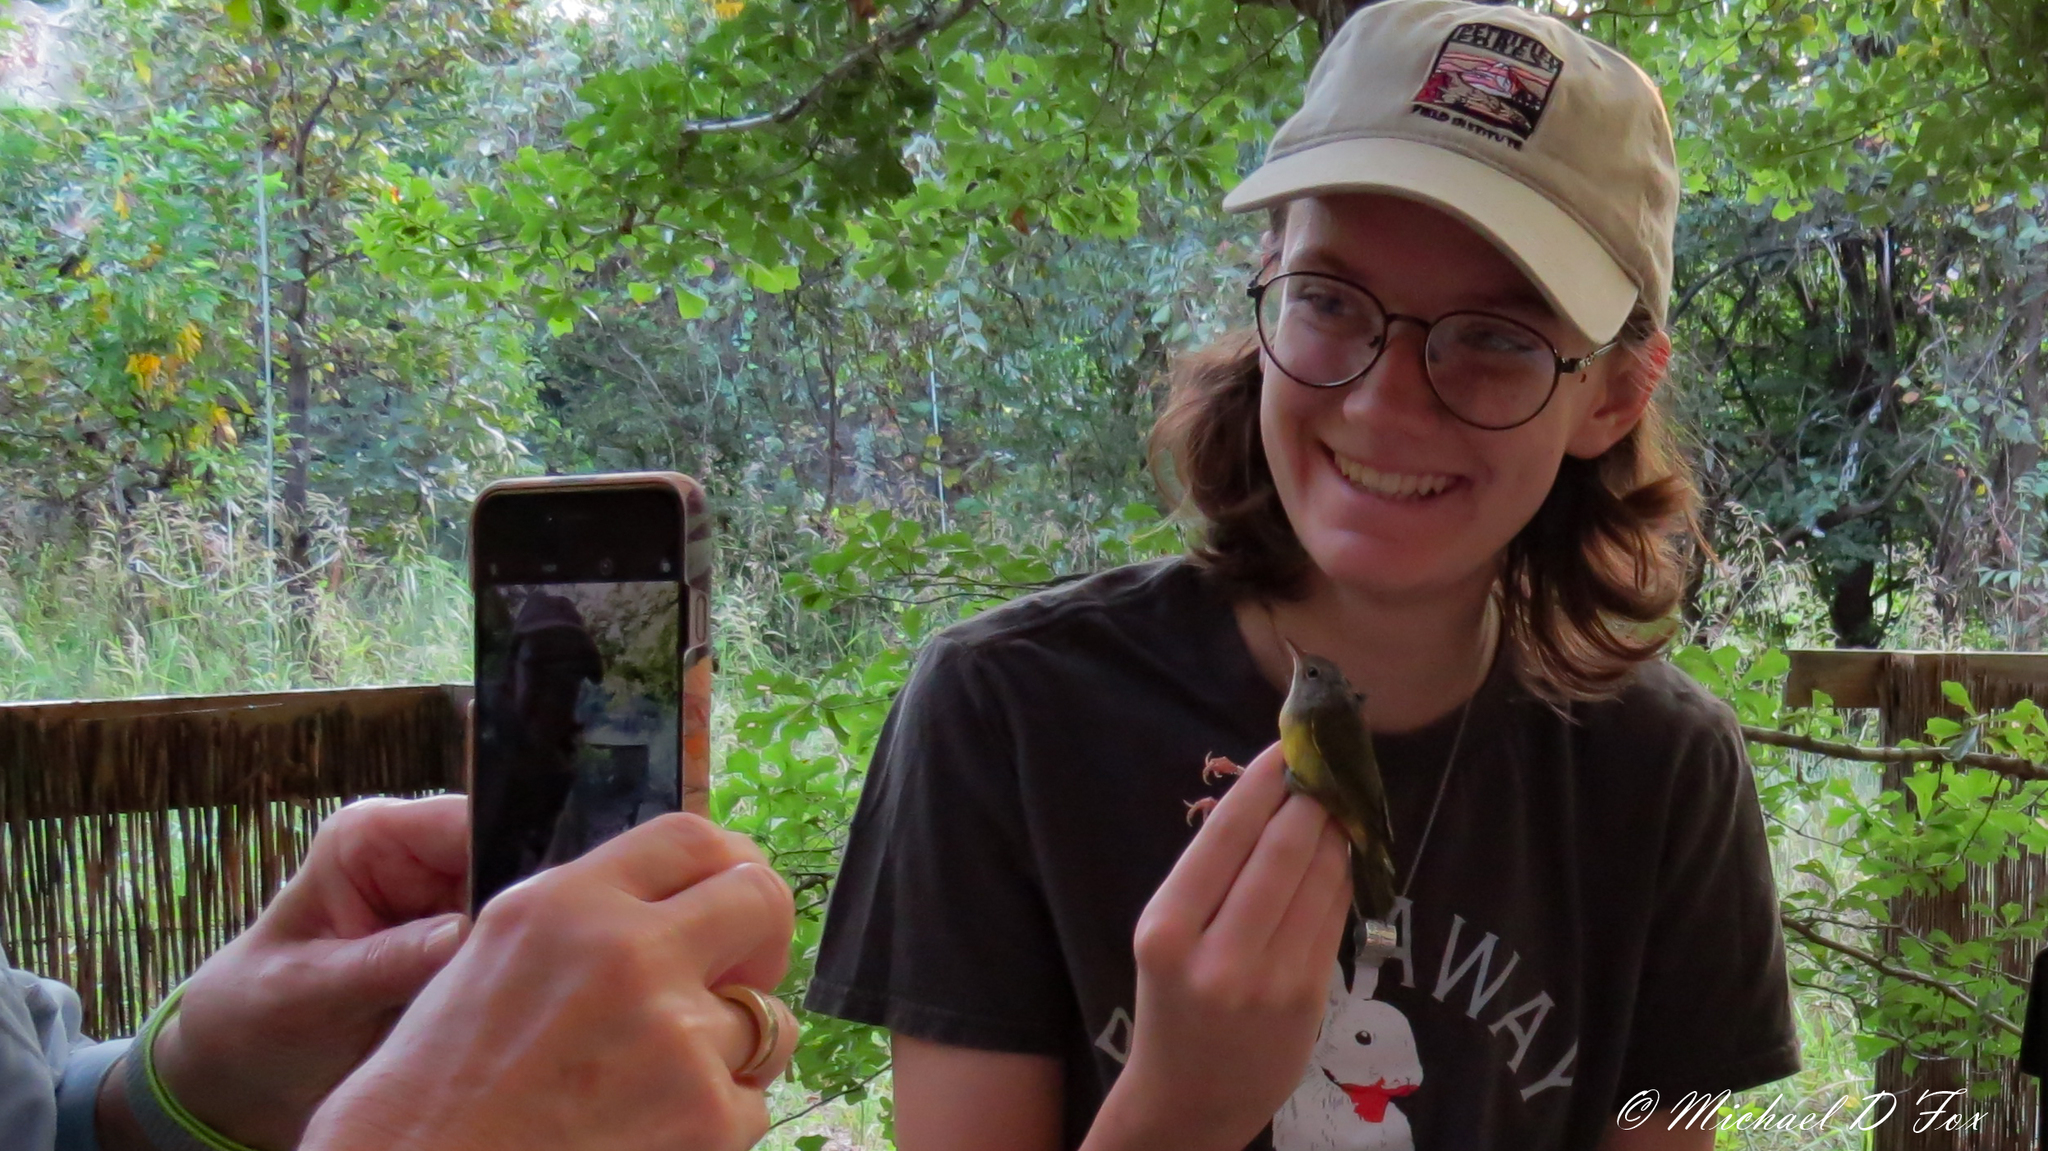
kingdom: Animalia
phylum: Chordata
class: Aves
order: Passeriformes
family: Parulidae
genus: Geothlypis
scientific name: Geothlypis philadelphia
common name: Mourning warbler
